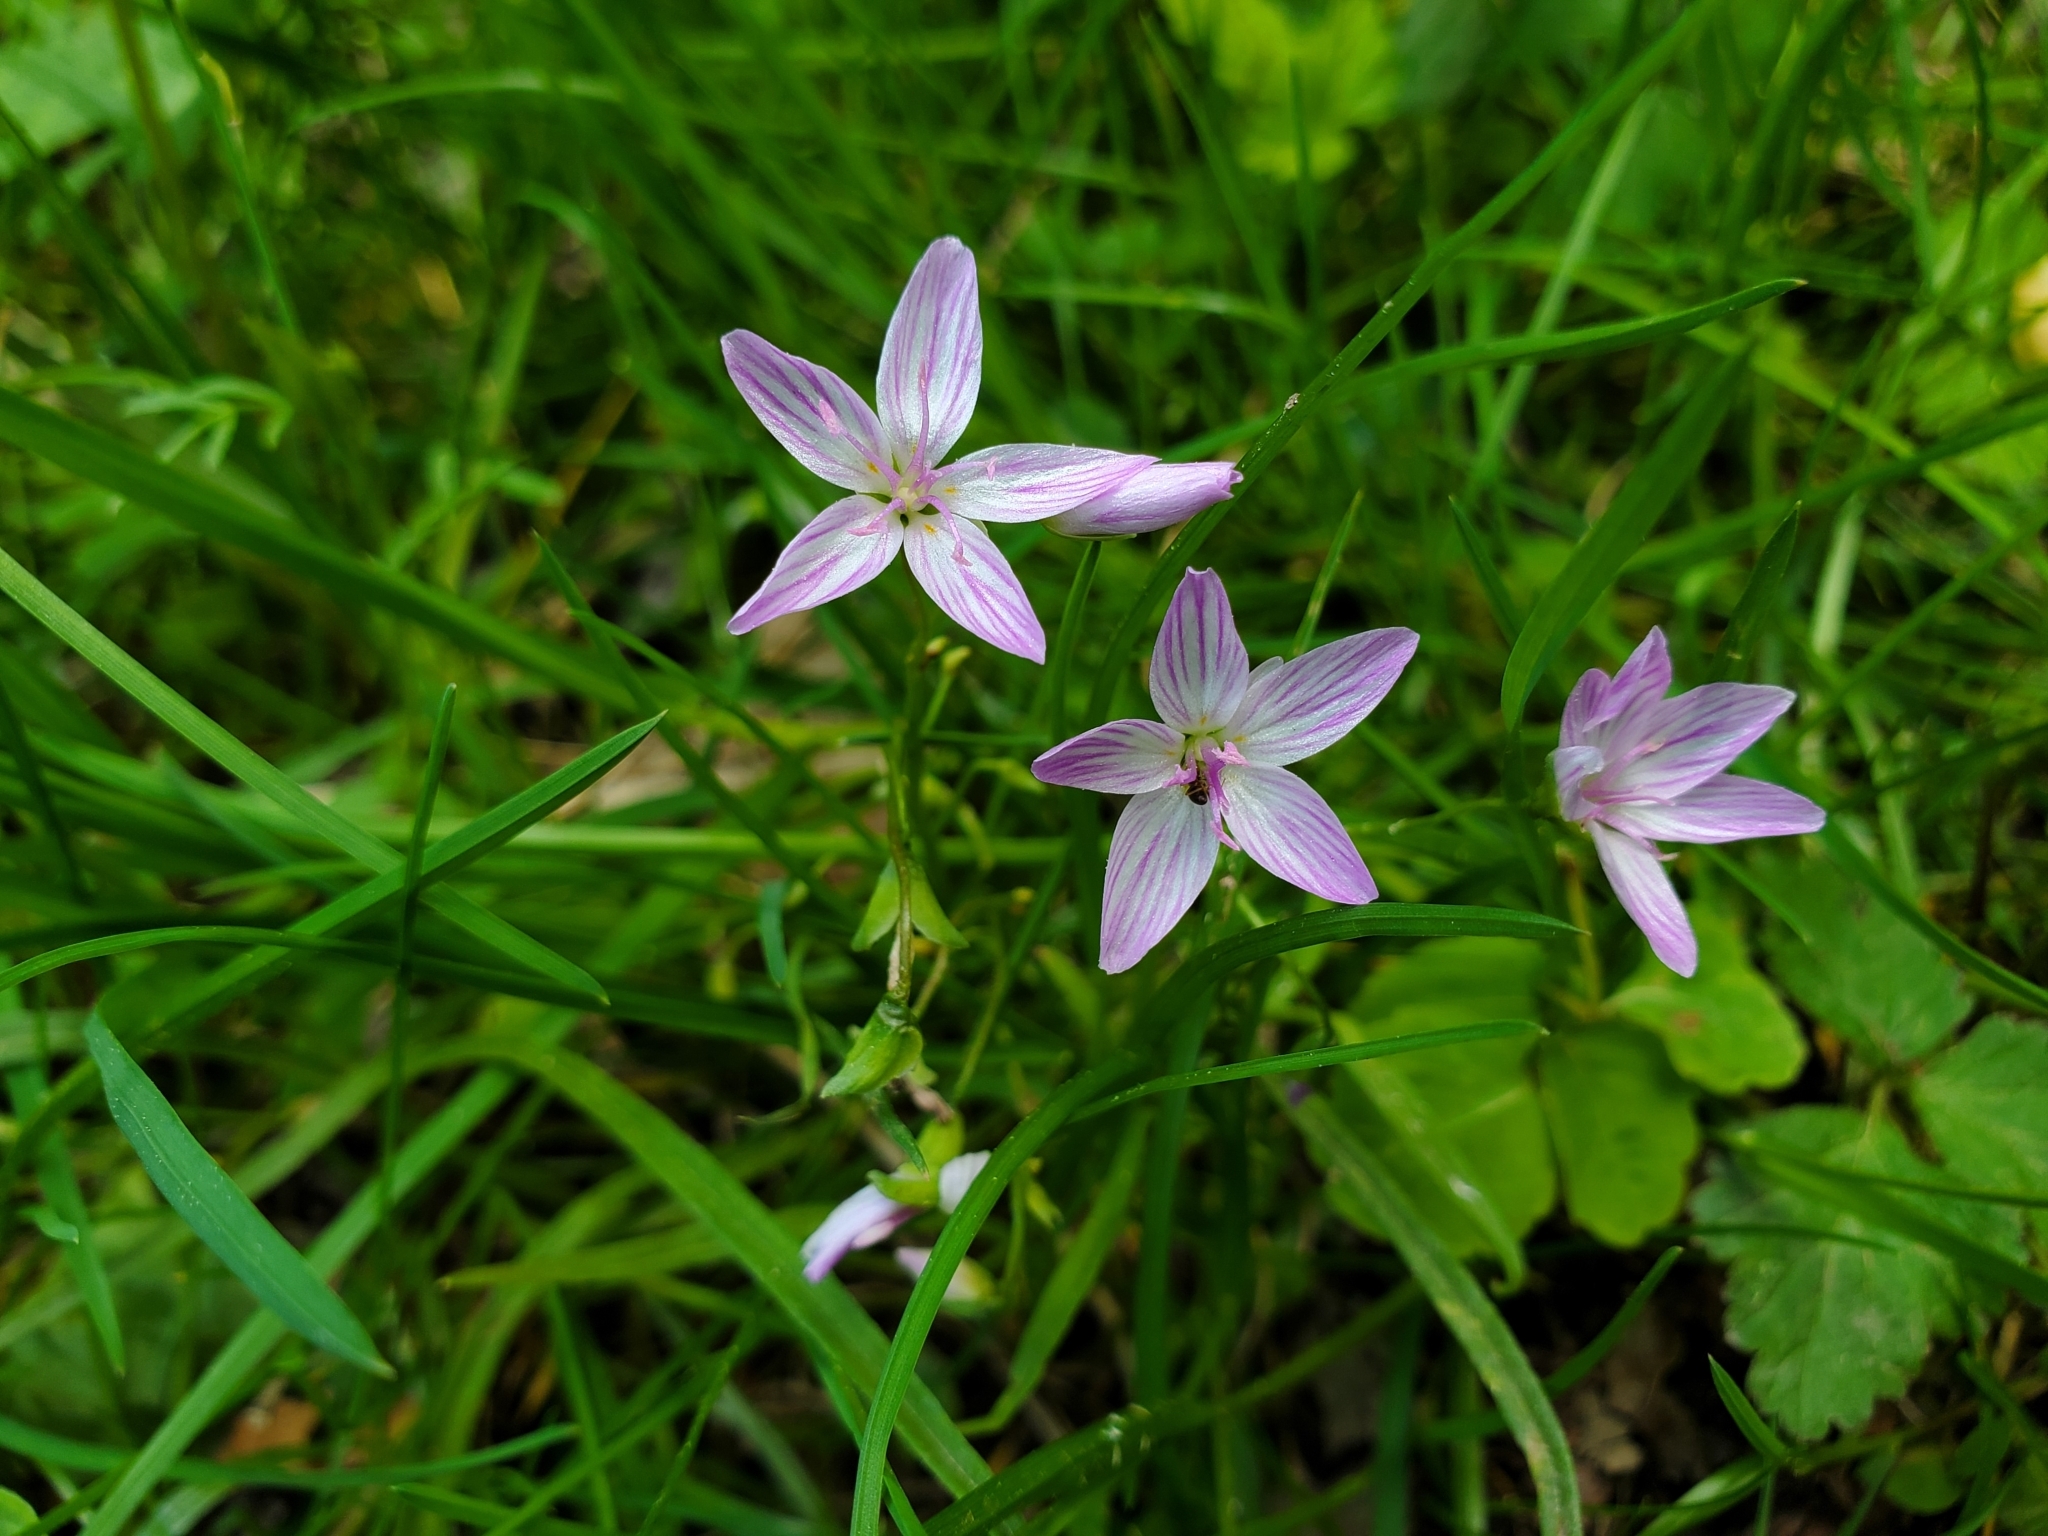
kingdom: Plantae
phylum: Tracheophyta
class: Magnoliopsida
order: Caryophyllales
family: Montiaceae
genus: Claytonia
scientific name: Claytonia virginica
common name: Virginia springbeauty
